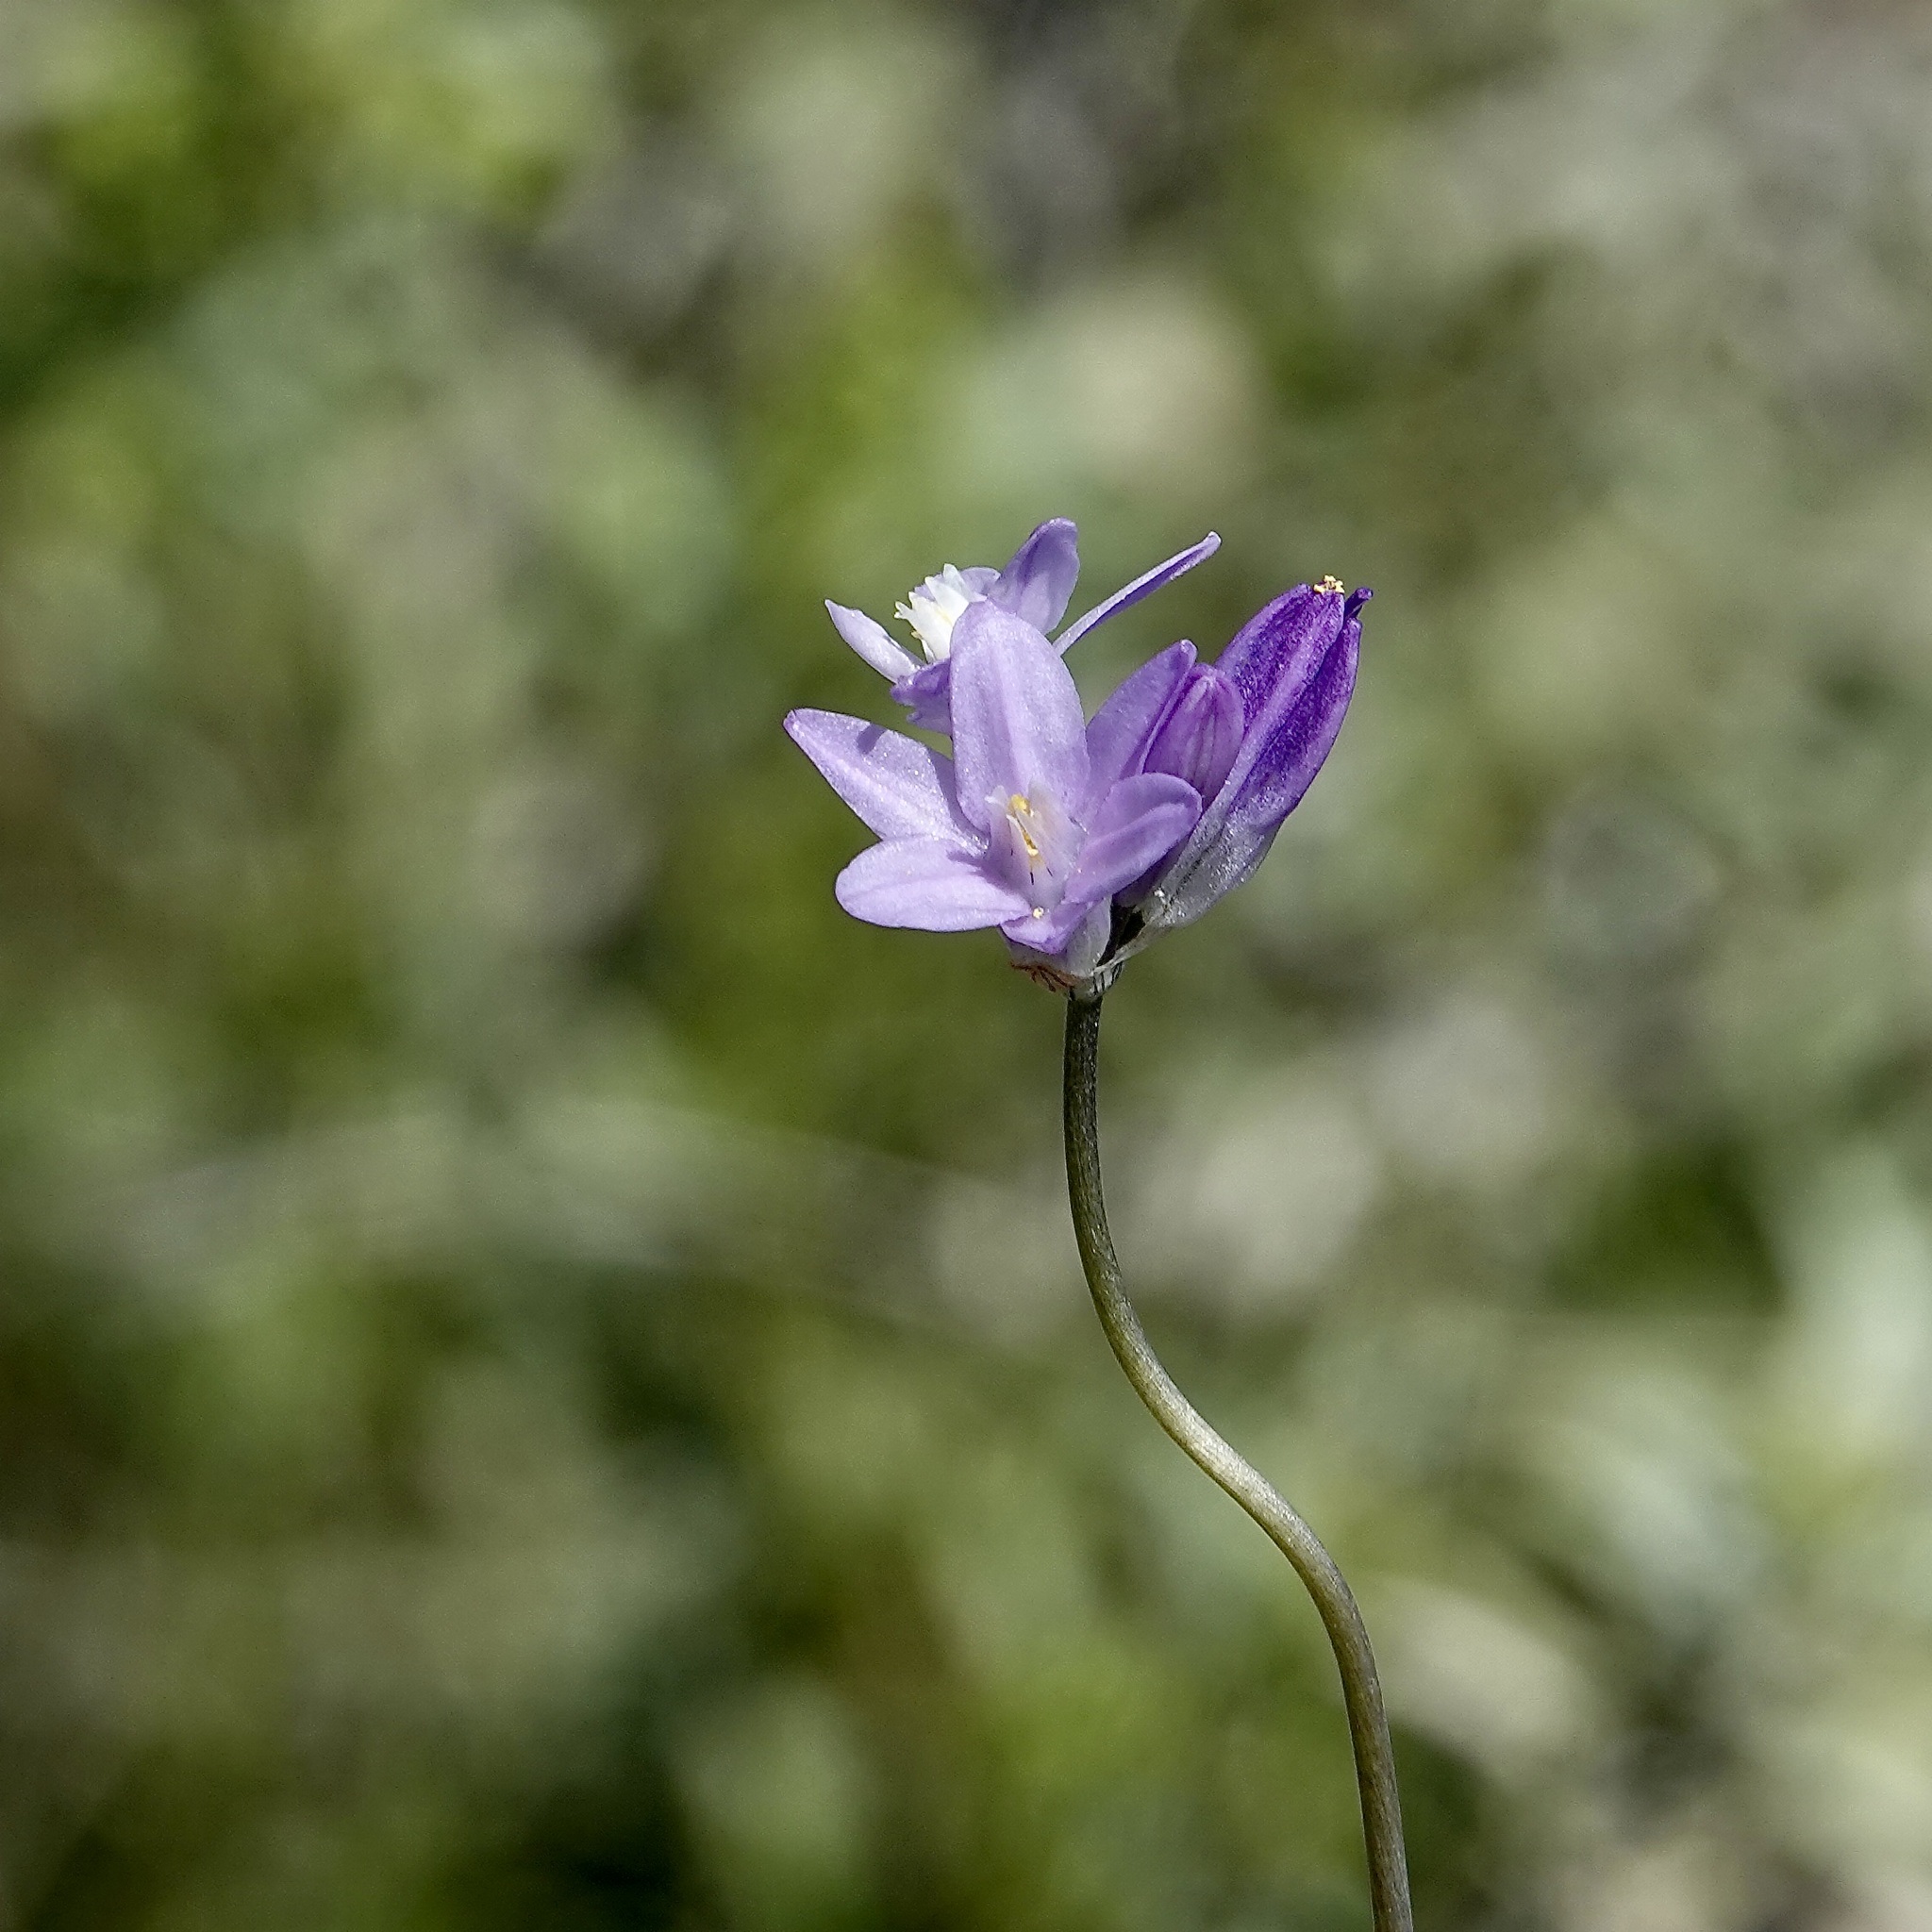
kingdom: Plantae
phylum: Tracheophyta
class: Liliopsida
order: Asparagales
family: Asparagaceae
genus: Dipterostemon
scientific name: Dipterostemon capitatus
